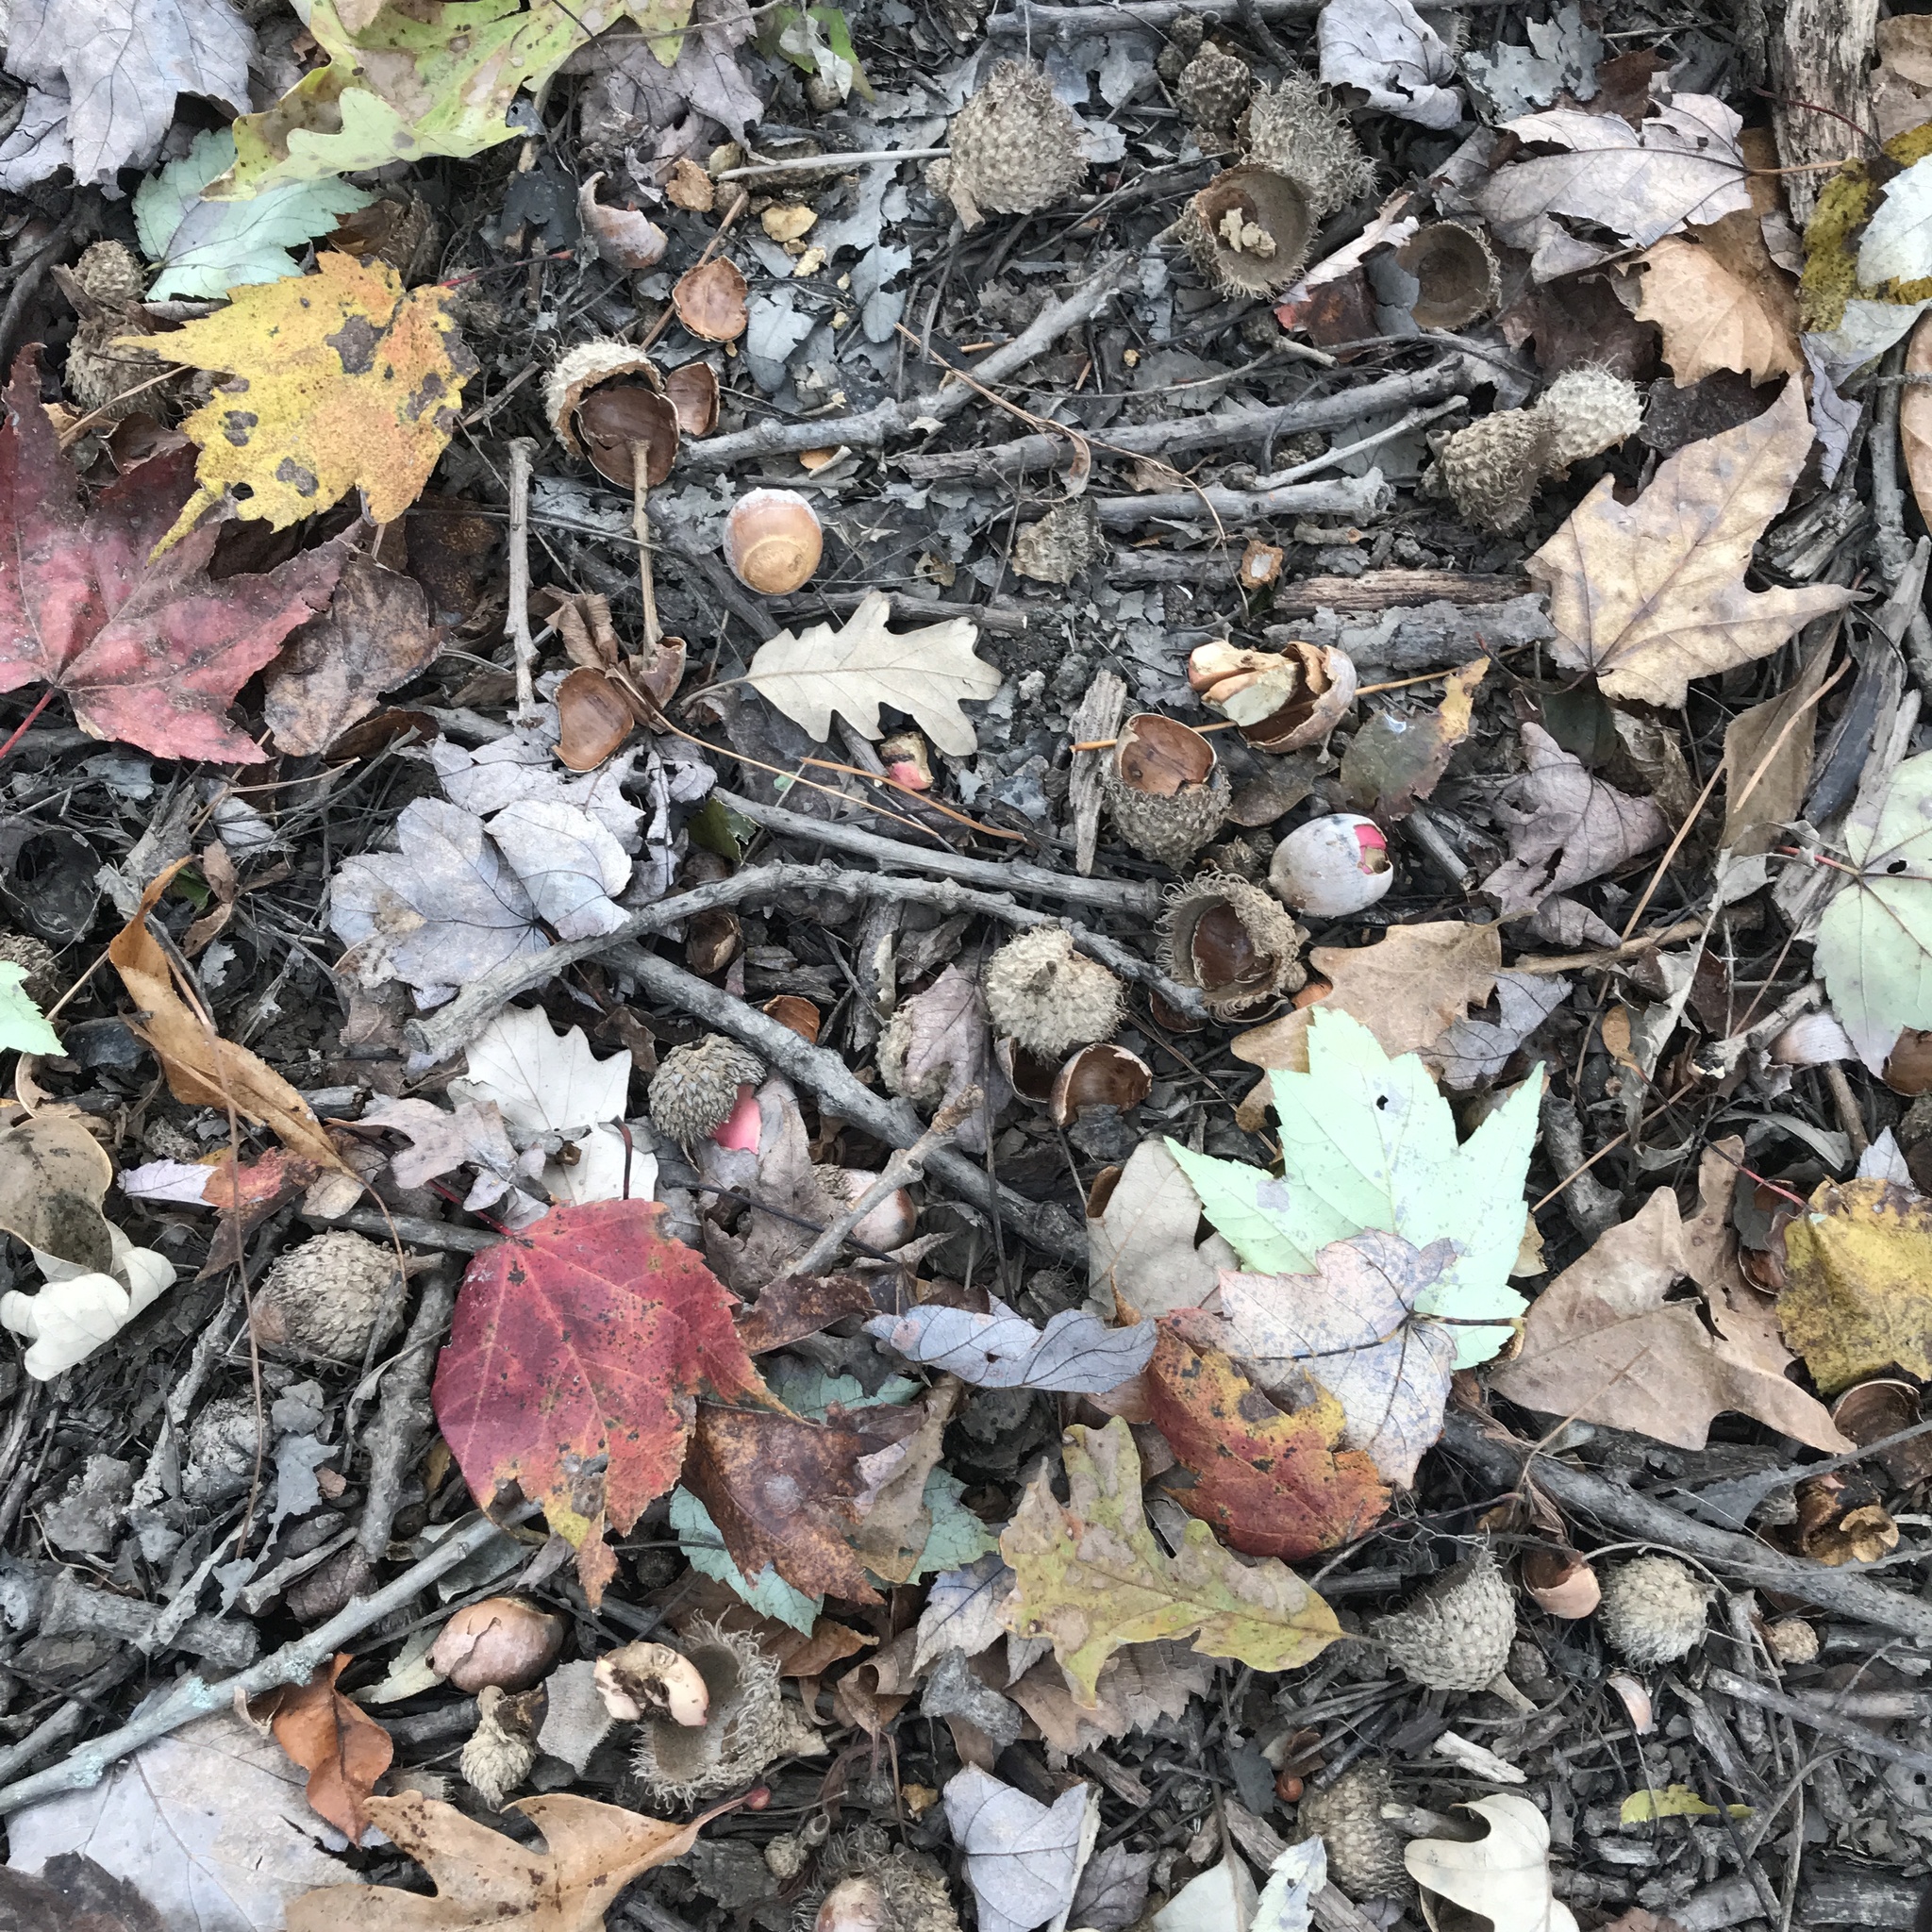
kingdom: Plantae
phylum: Tracheophyta
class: Magnoliopsida
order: Fagales
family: Fagaceae
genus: Quercus
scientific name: Quercus macrocarpa
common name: Bur oak
